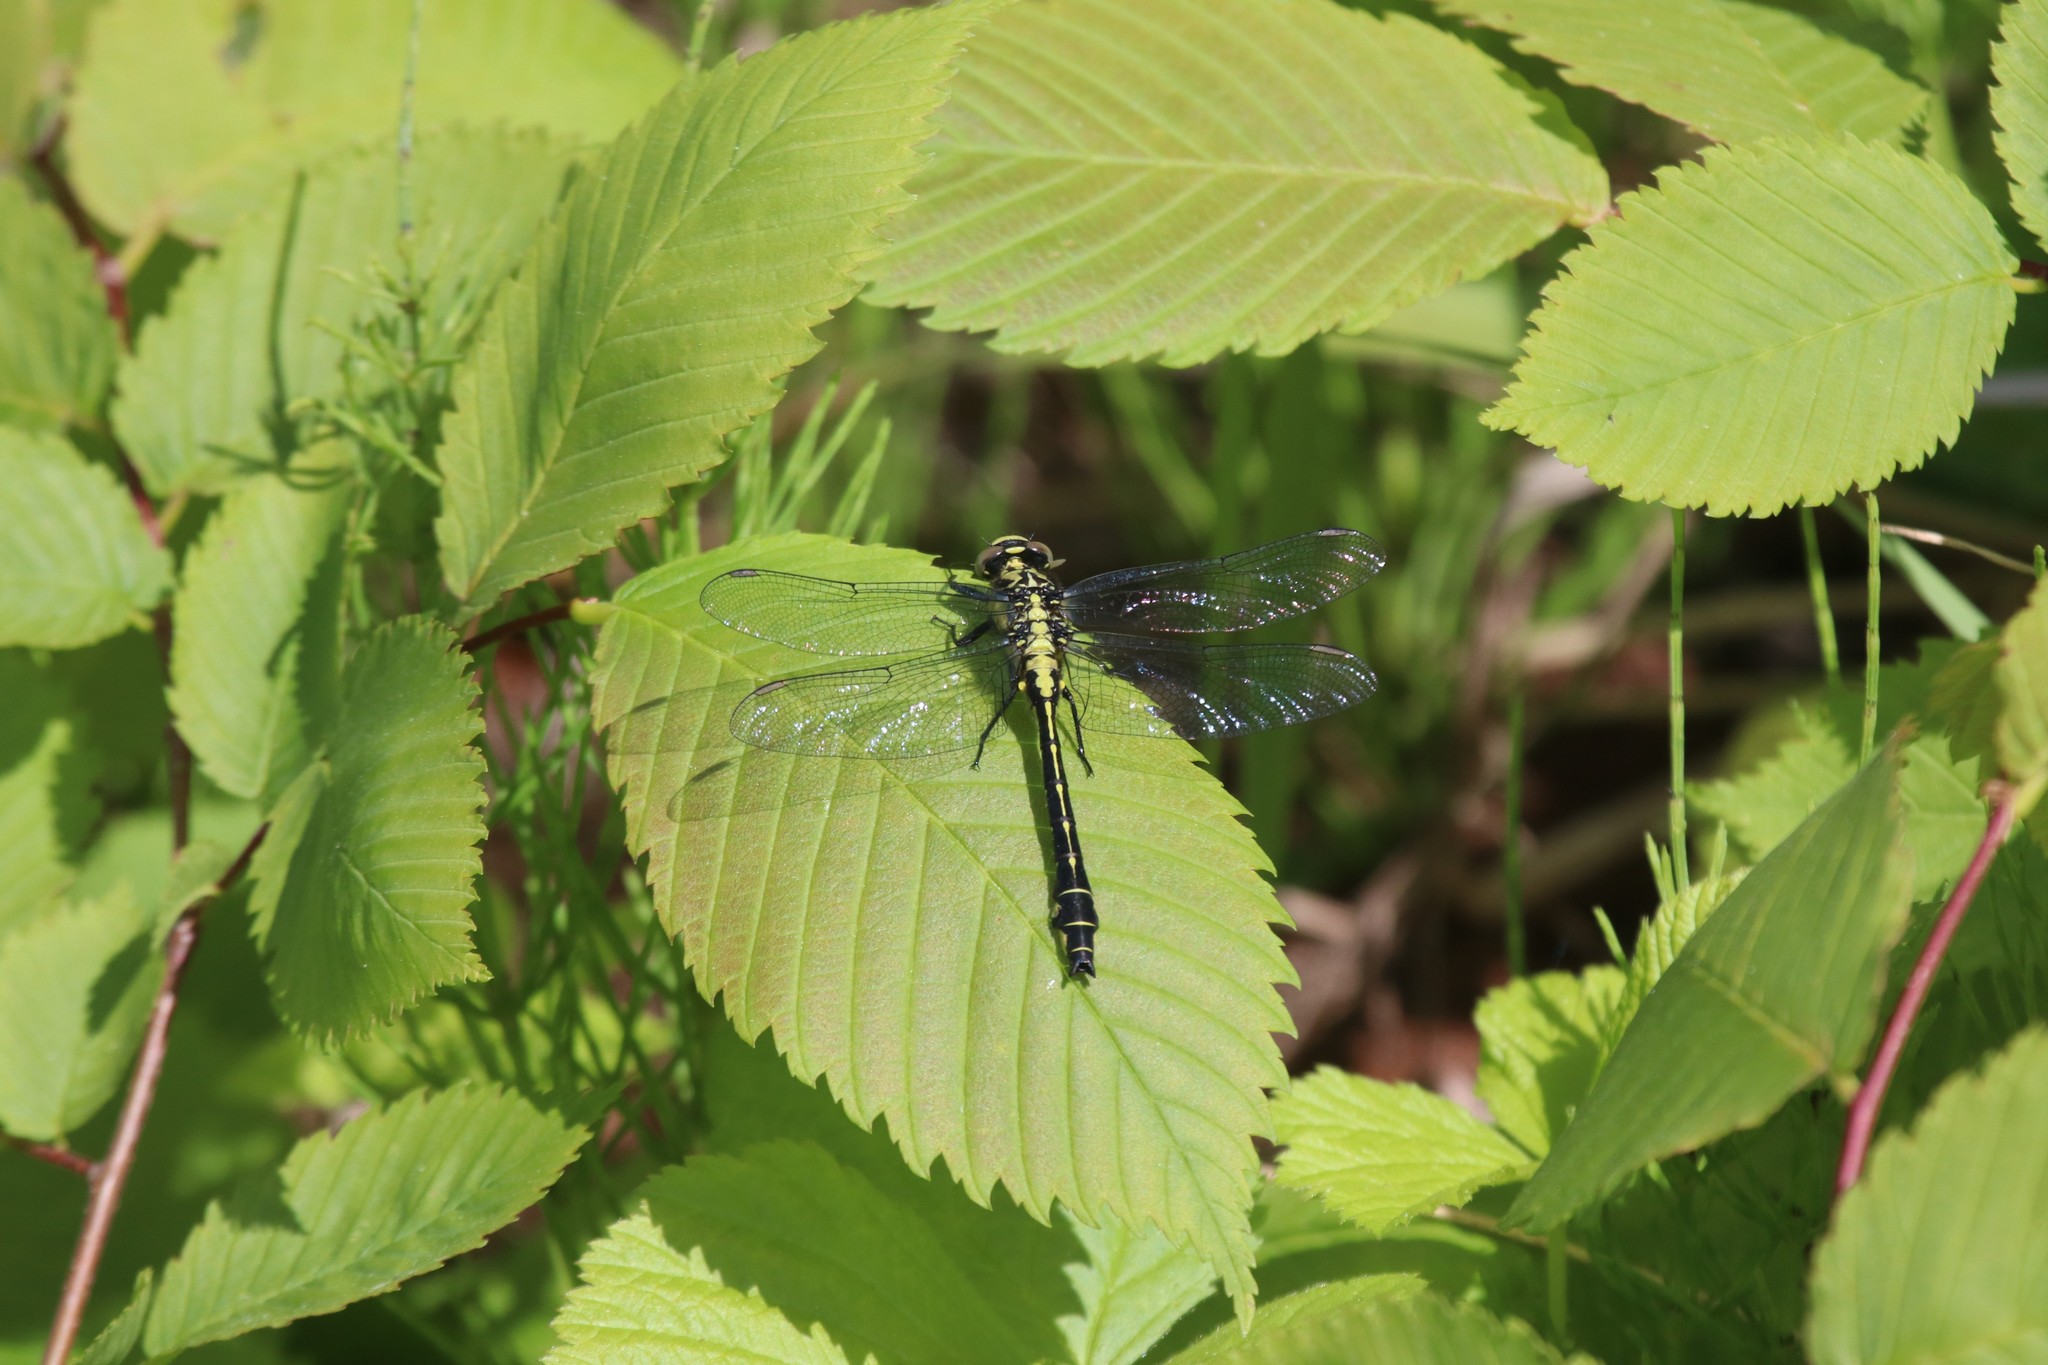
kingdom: Animalia
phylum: Arthropoda
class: Insecta
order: Odonata
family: Gomphidae
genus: Gomphus
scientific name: Gomphus vulgatissimus
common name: Club-tailed dragonfly
